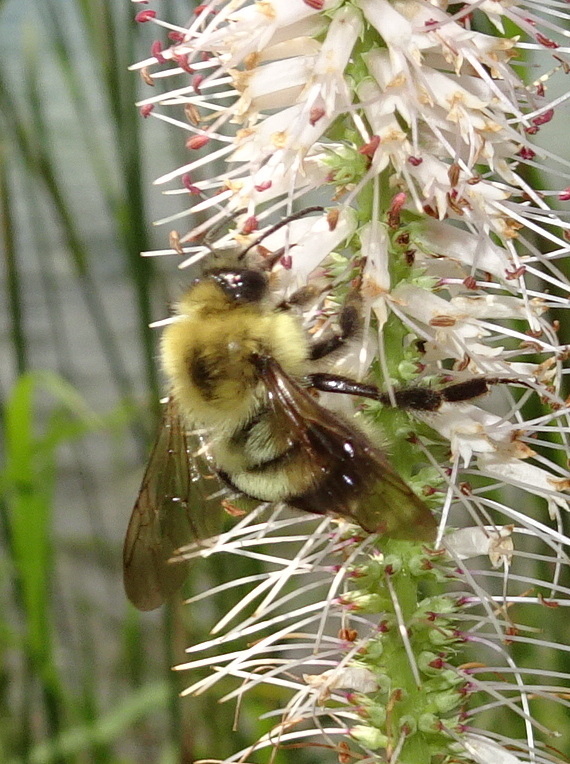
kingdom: Animalia
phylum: Arthropoda
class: Insecta
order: Hymenoptera
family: Apidae
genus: Bombus
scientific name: Bombus bimaculatus
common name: Two-spotted bumble bee
